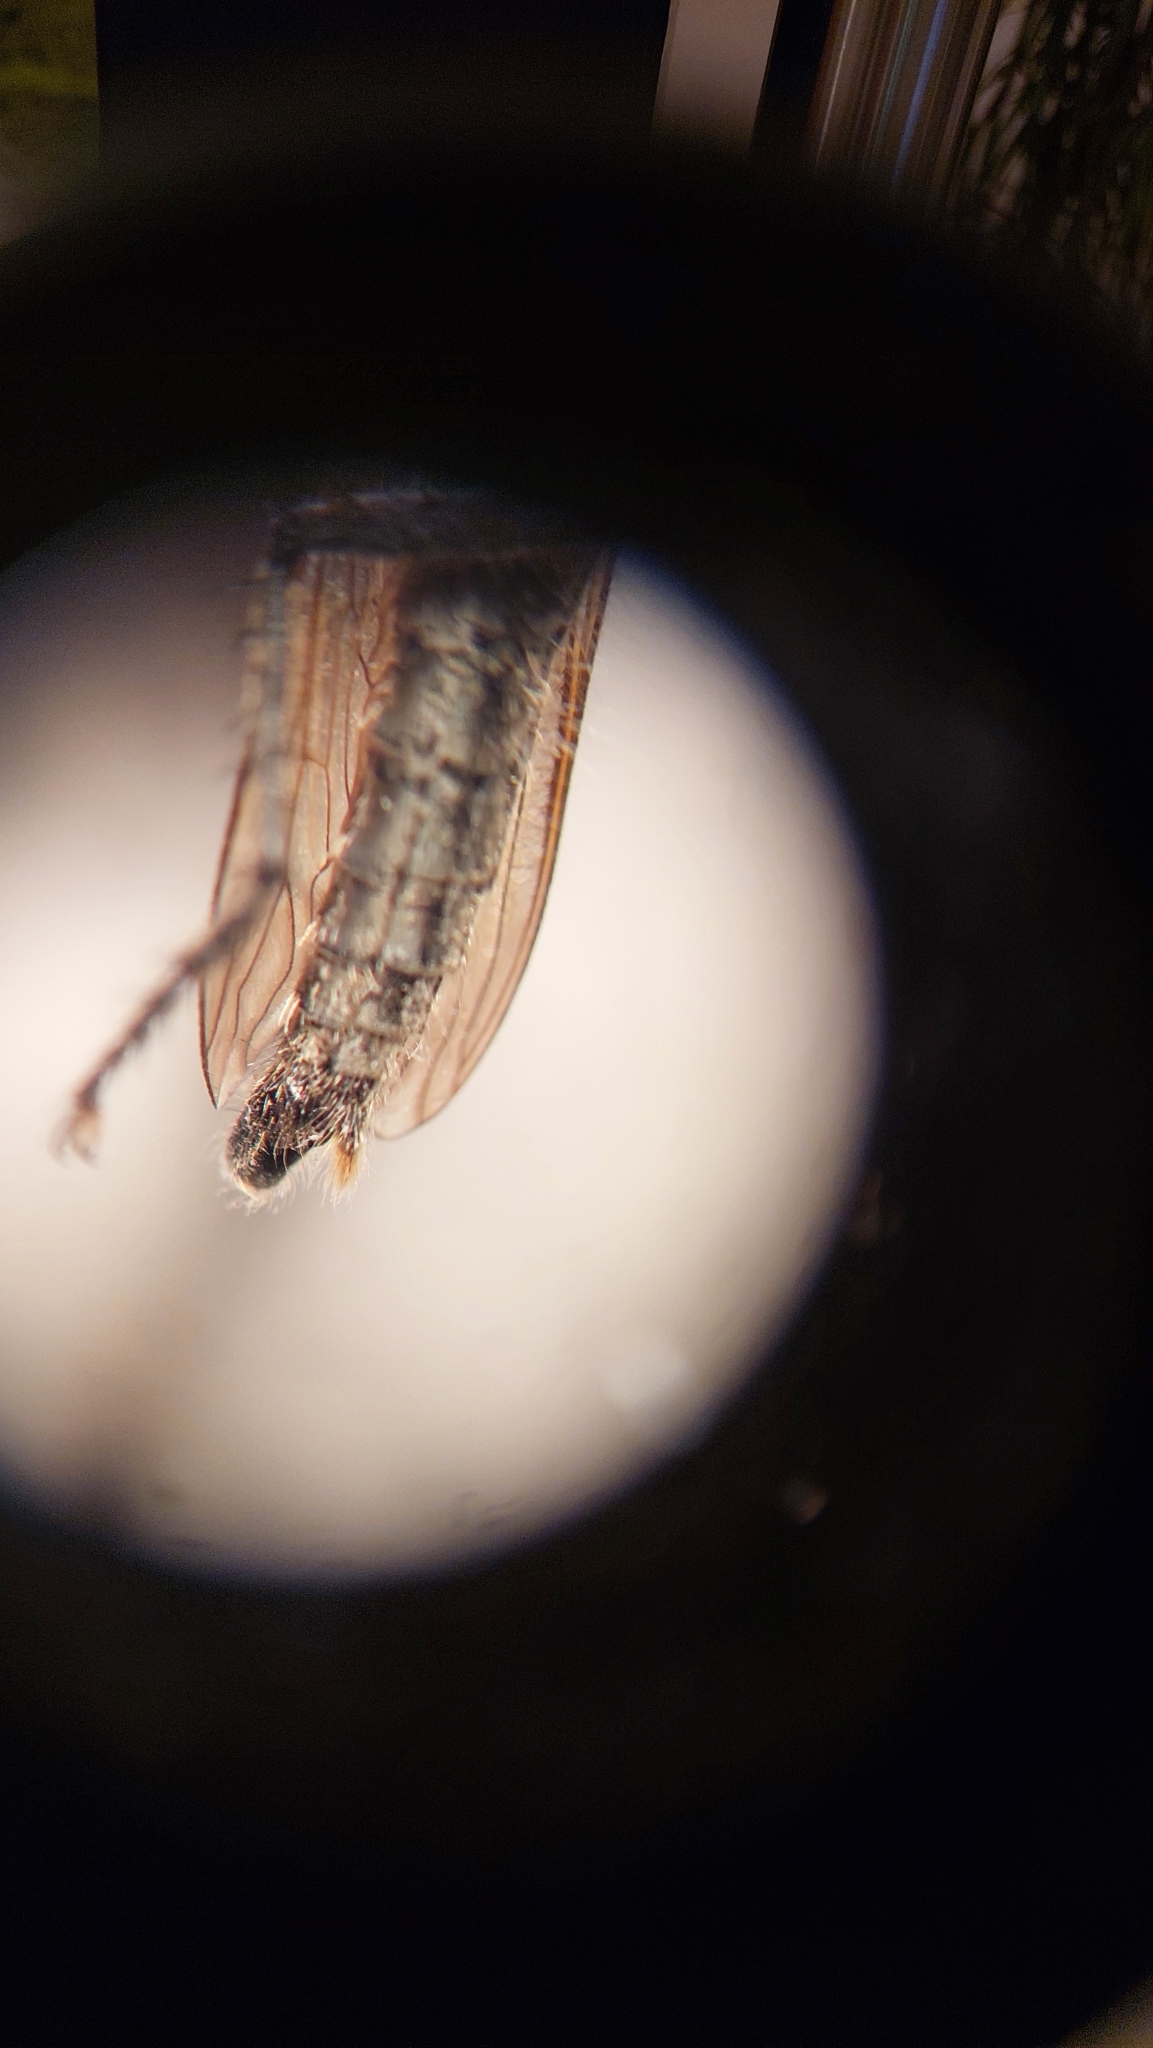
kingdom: Animalia
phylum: Arthropoda
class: Insecta
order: Diptera
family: Asilidae
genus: Eutolmus
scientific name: Eutolmus rufibarbis
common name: Golden-tabbed robberfly
